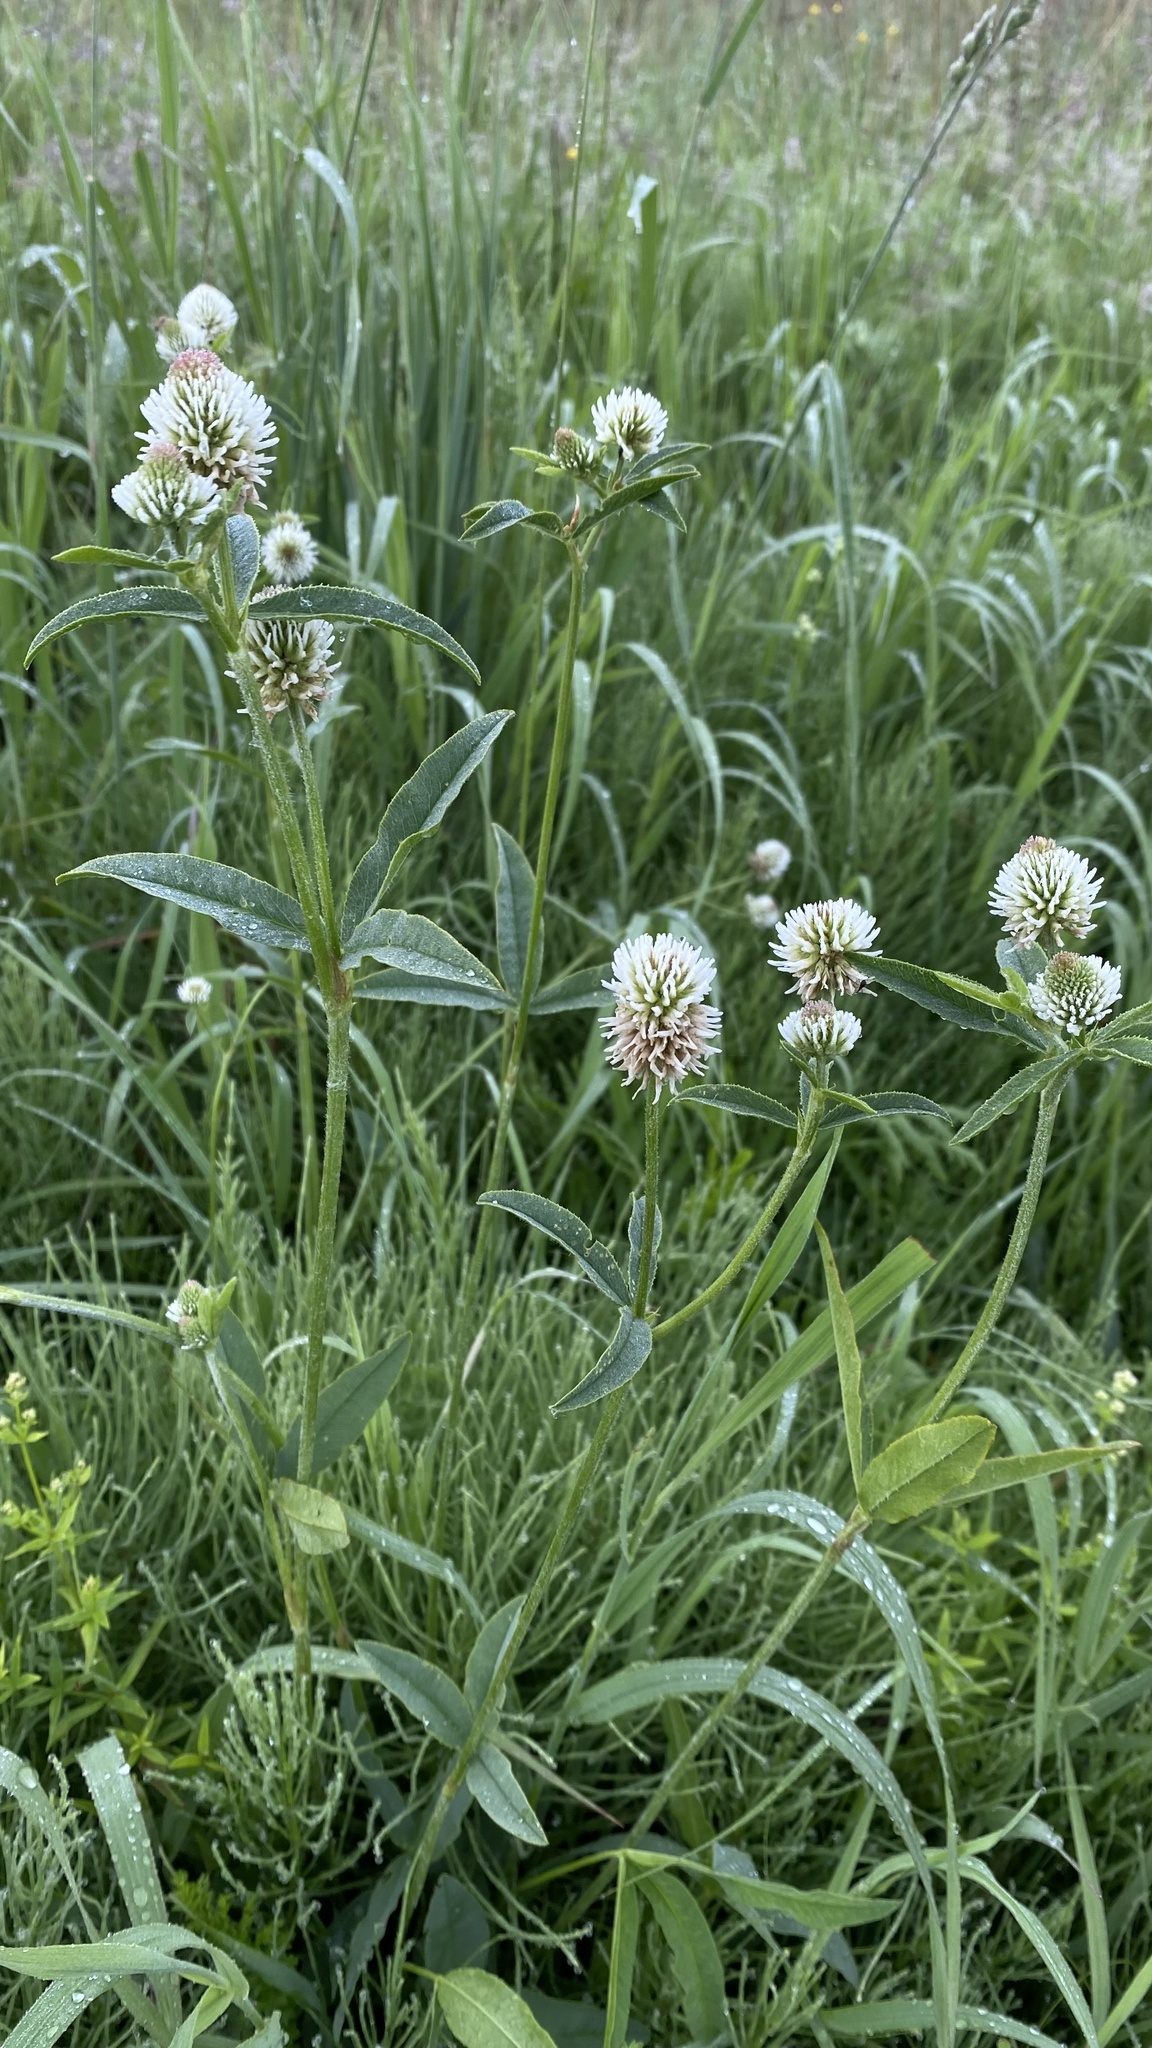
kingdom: Plantae
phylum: Tracheophyta
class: Magnoliopsida
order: Fabales
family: Fabaceae
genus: Trifolium
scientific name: Trifolium montanum
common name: Mountain clover
